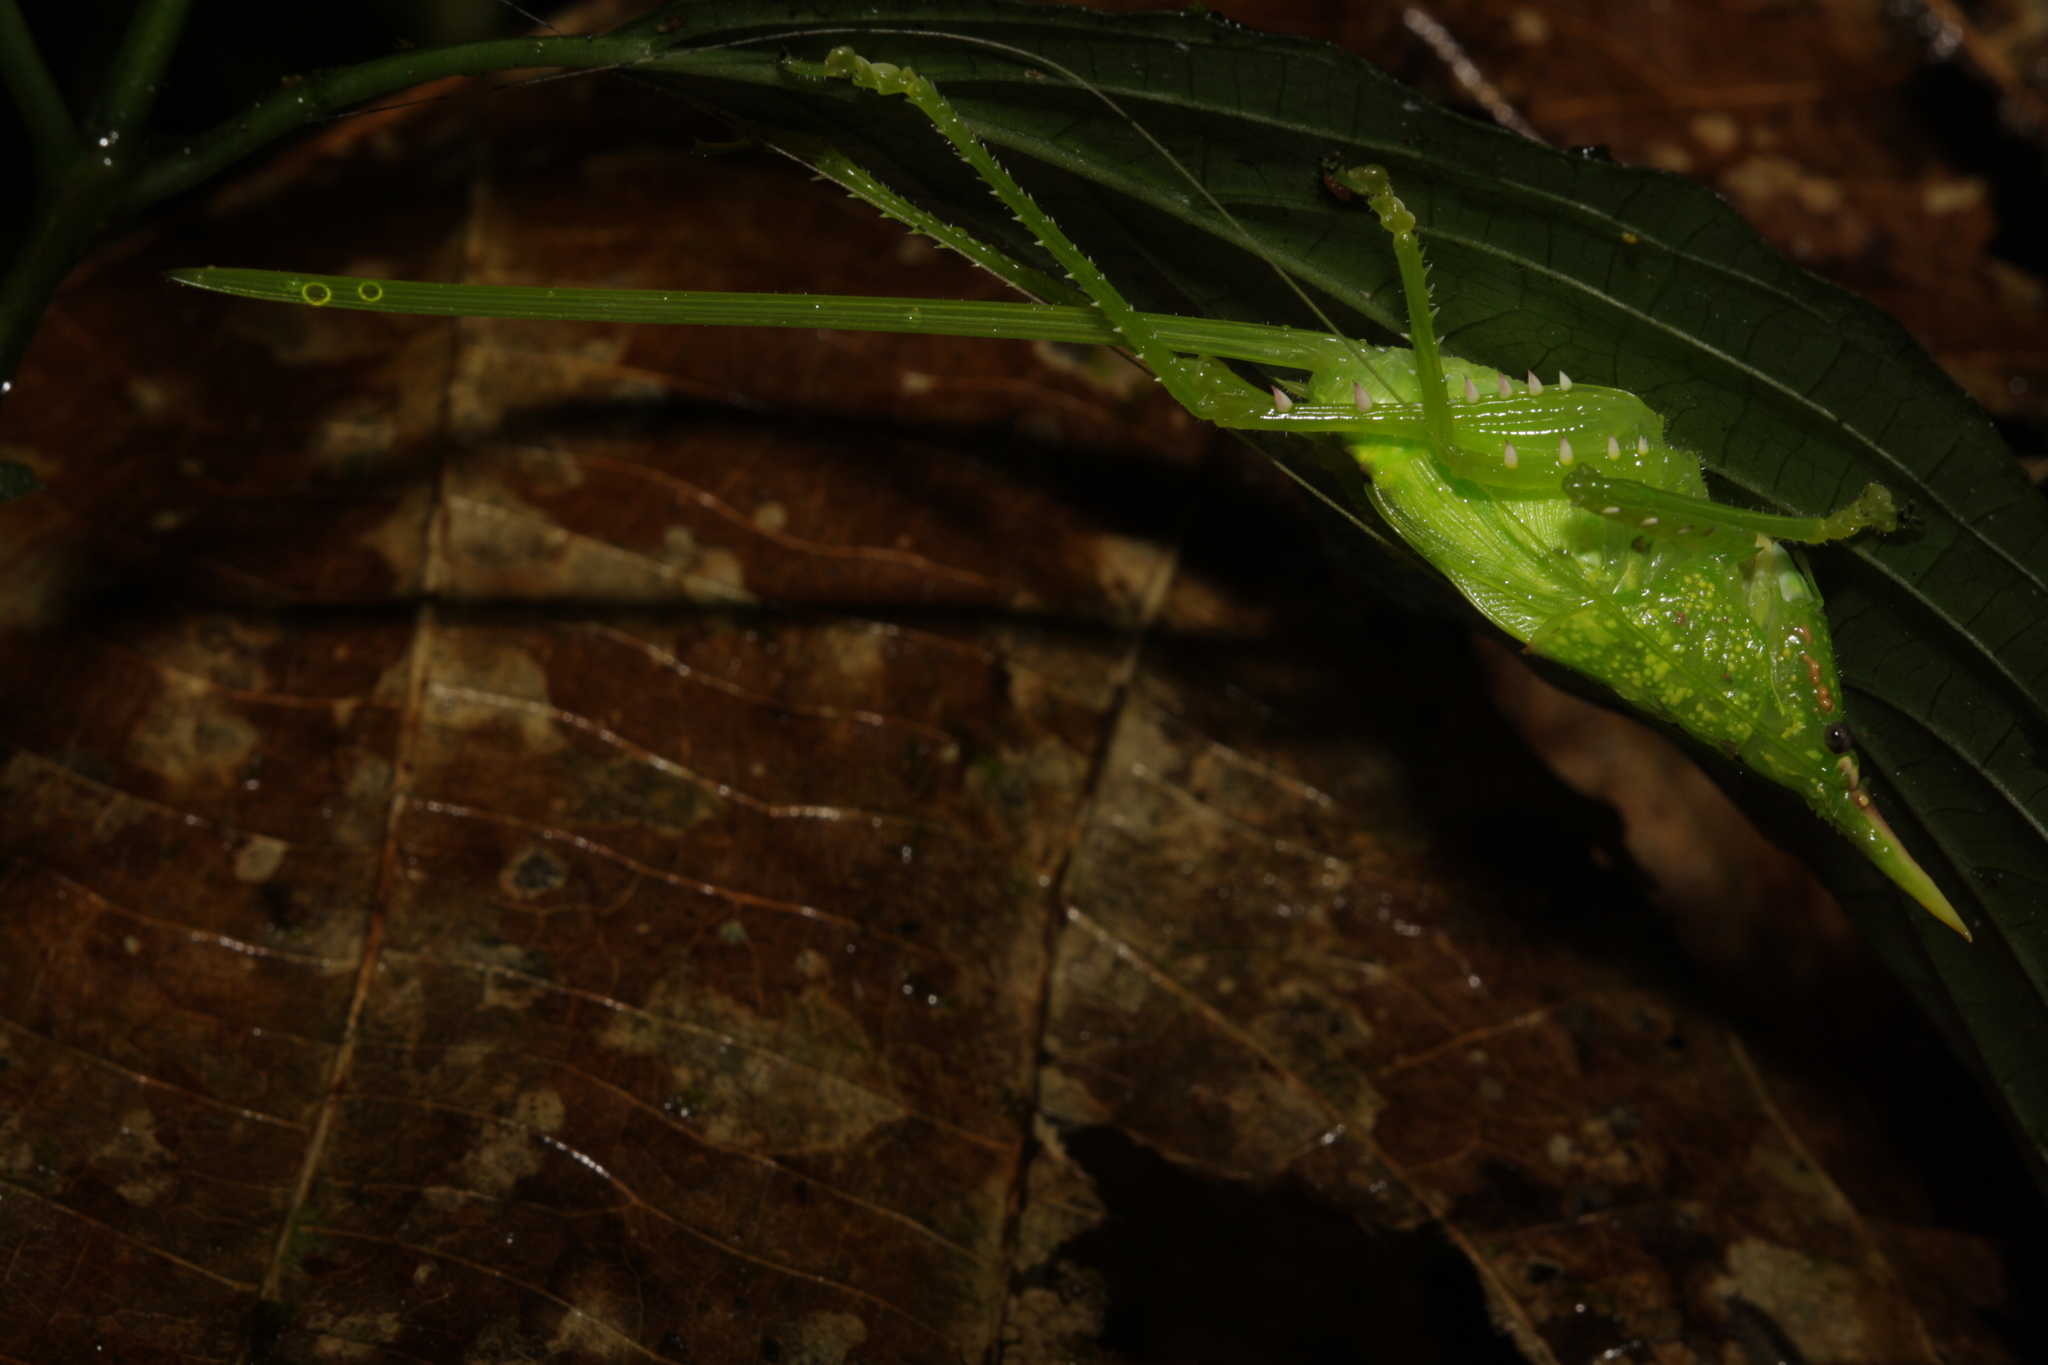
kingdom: Animalia
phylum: Arthropoda
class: Insecta
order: Orthoptera
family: Tettigoniidae
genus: Copiphora
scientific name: Copiphora rhinoceros
